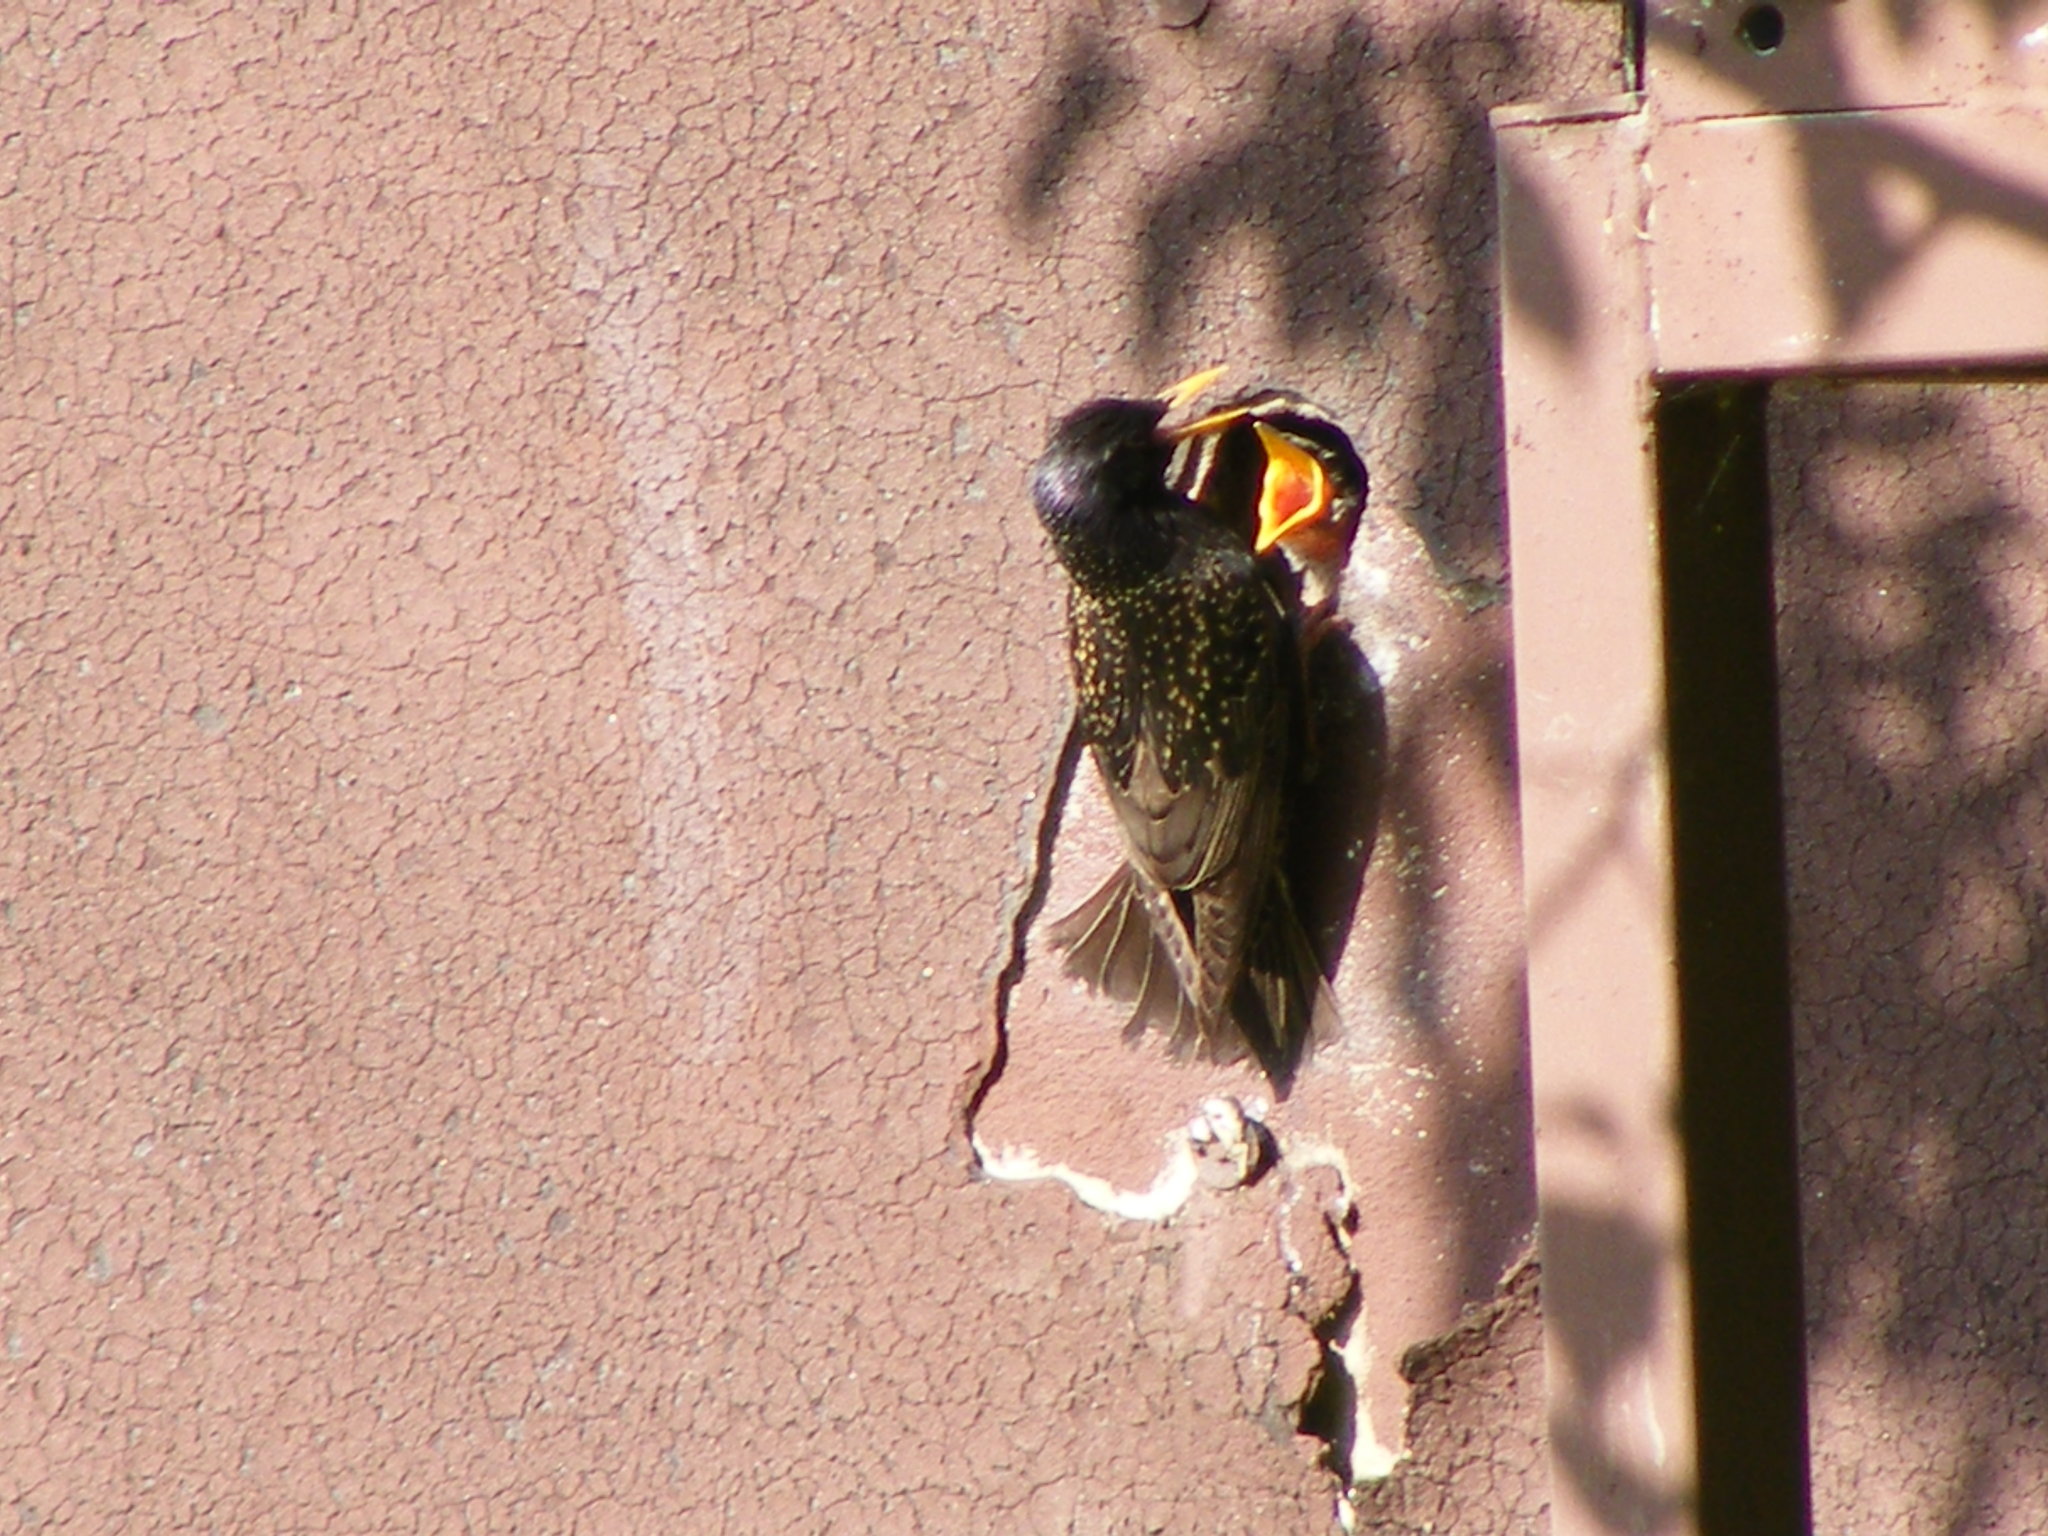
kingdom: Animalia
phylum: Chordata
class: Aves
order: Passeriformes
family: Sturnidae
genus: Sturnus
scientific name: Sturnus vulgaris
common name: Common starling
